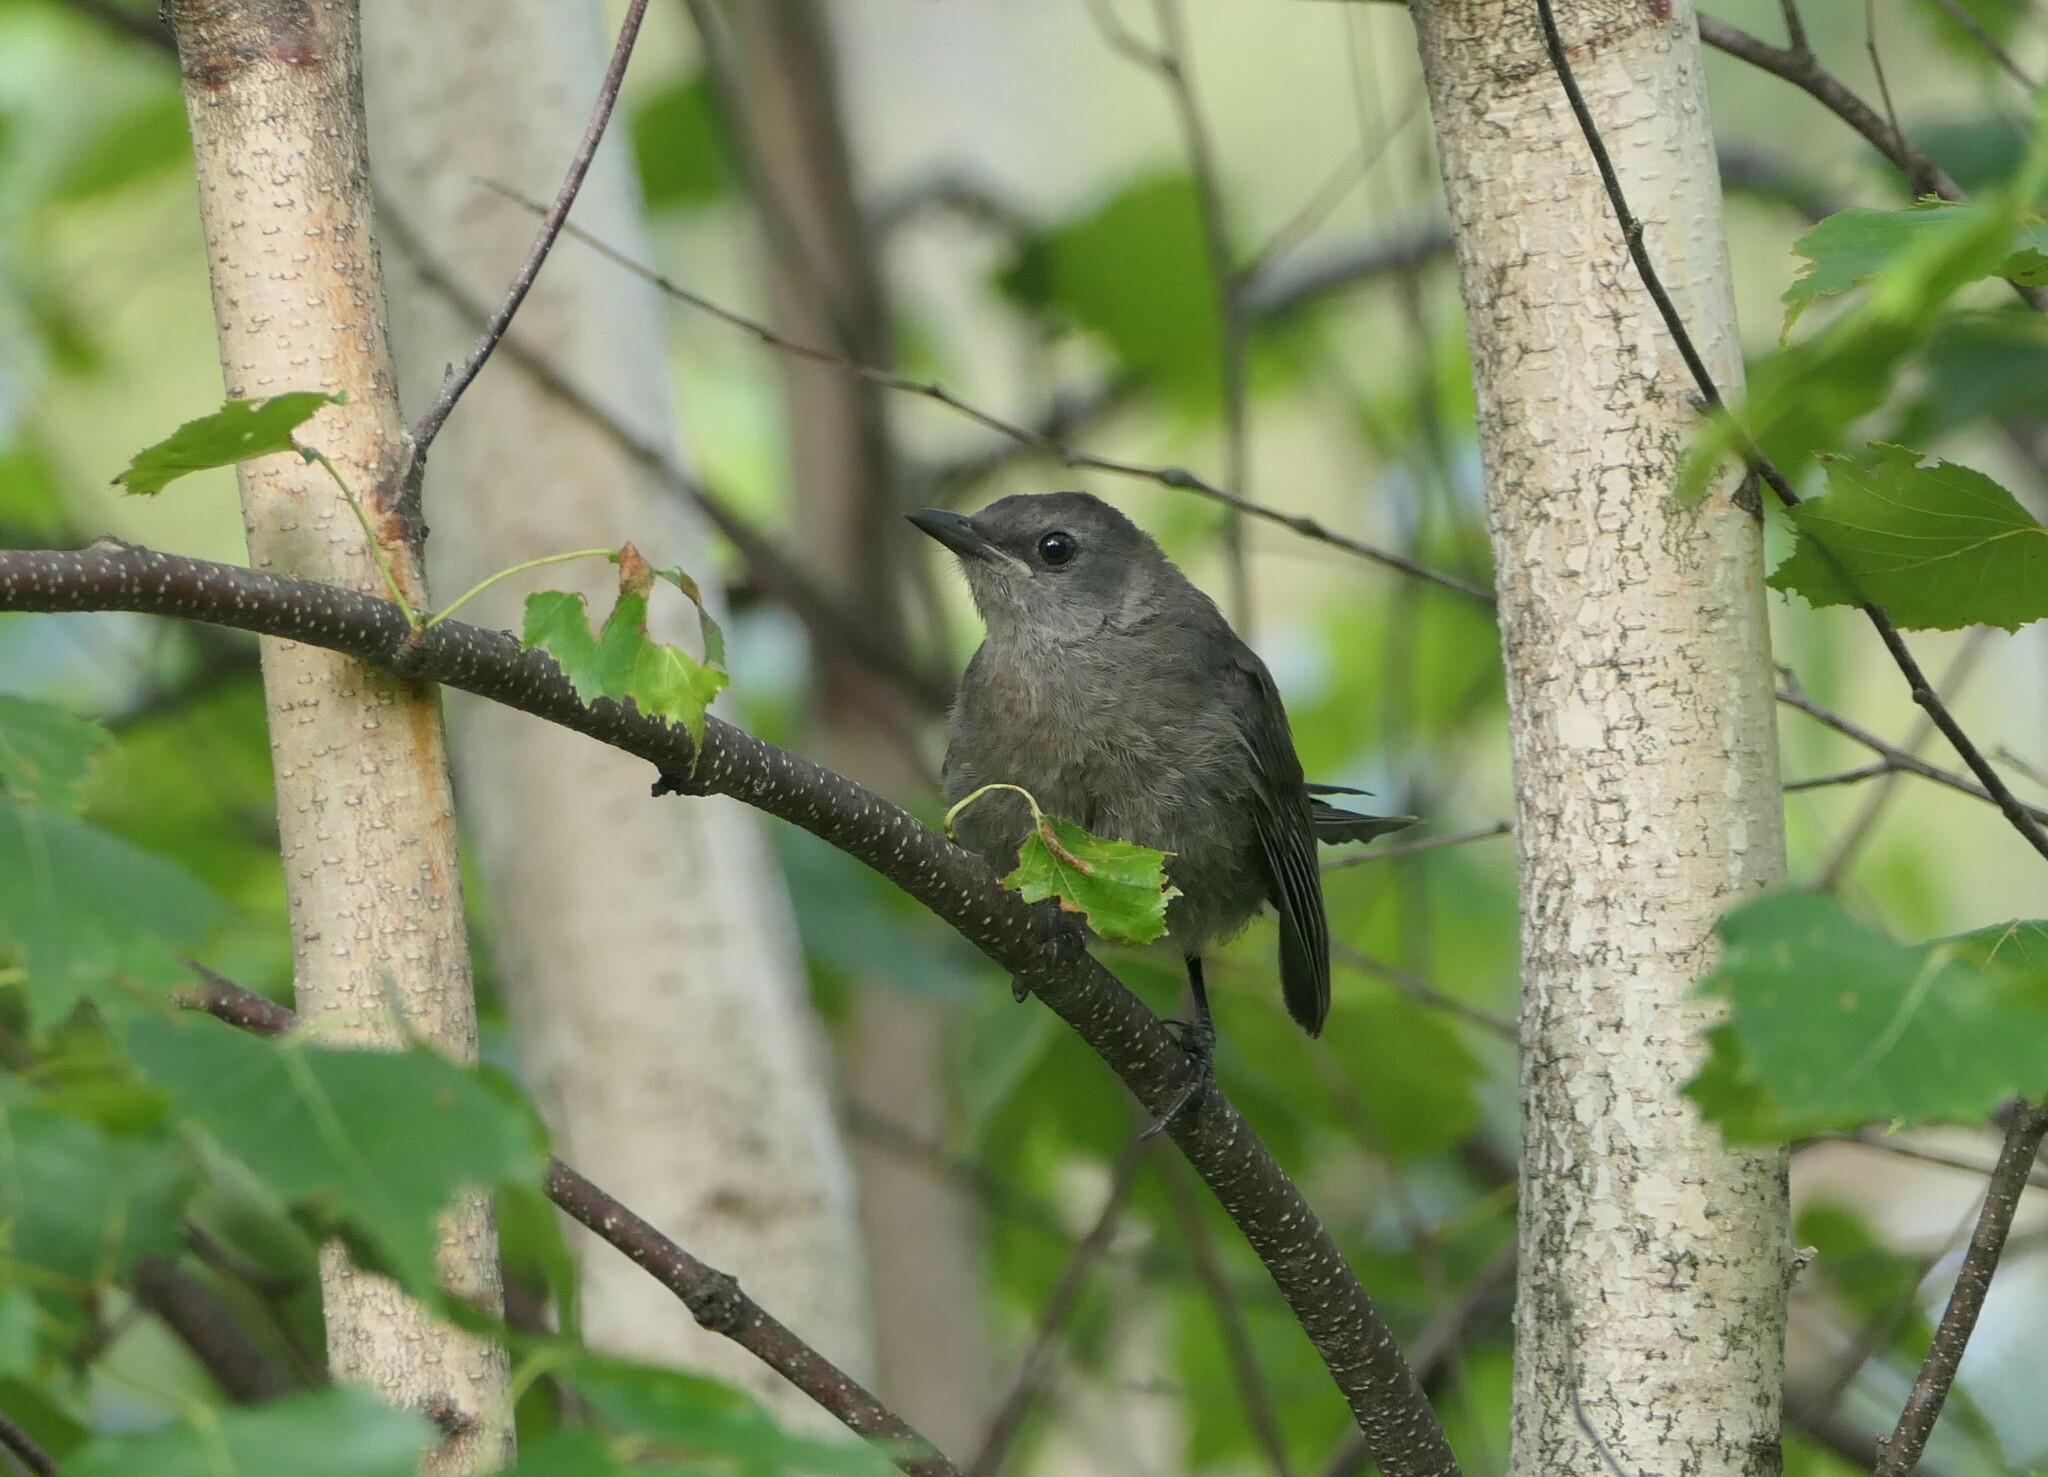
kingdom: Animalia
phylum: Chordata
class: Aves
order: Passeriformes
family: Mimidae
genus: Dumetella
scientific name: Dumetella carolinensis
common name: Gray catbird
